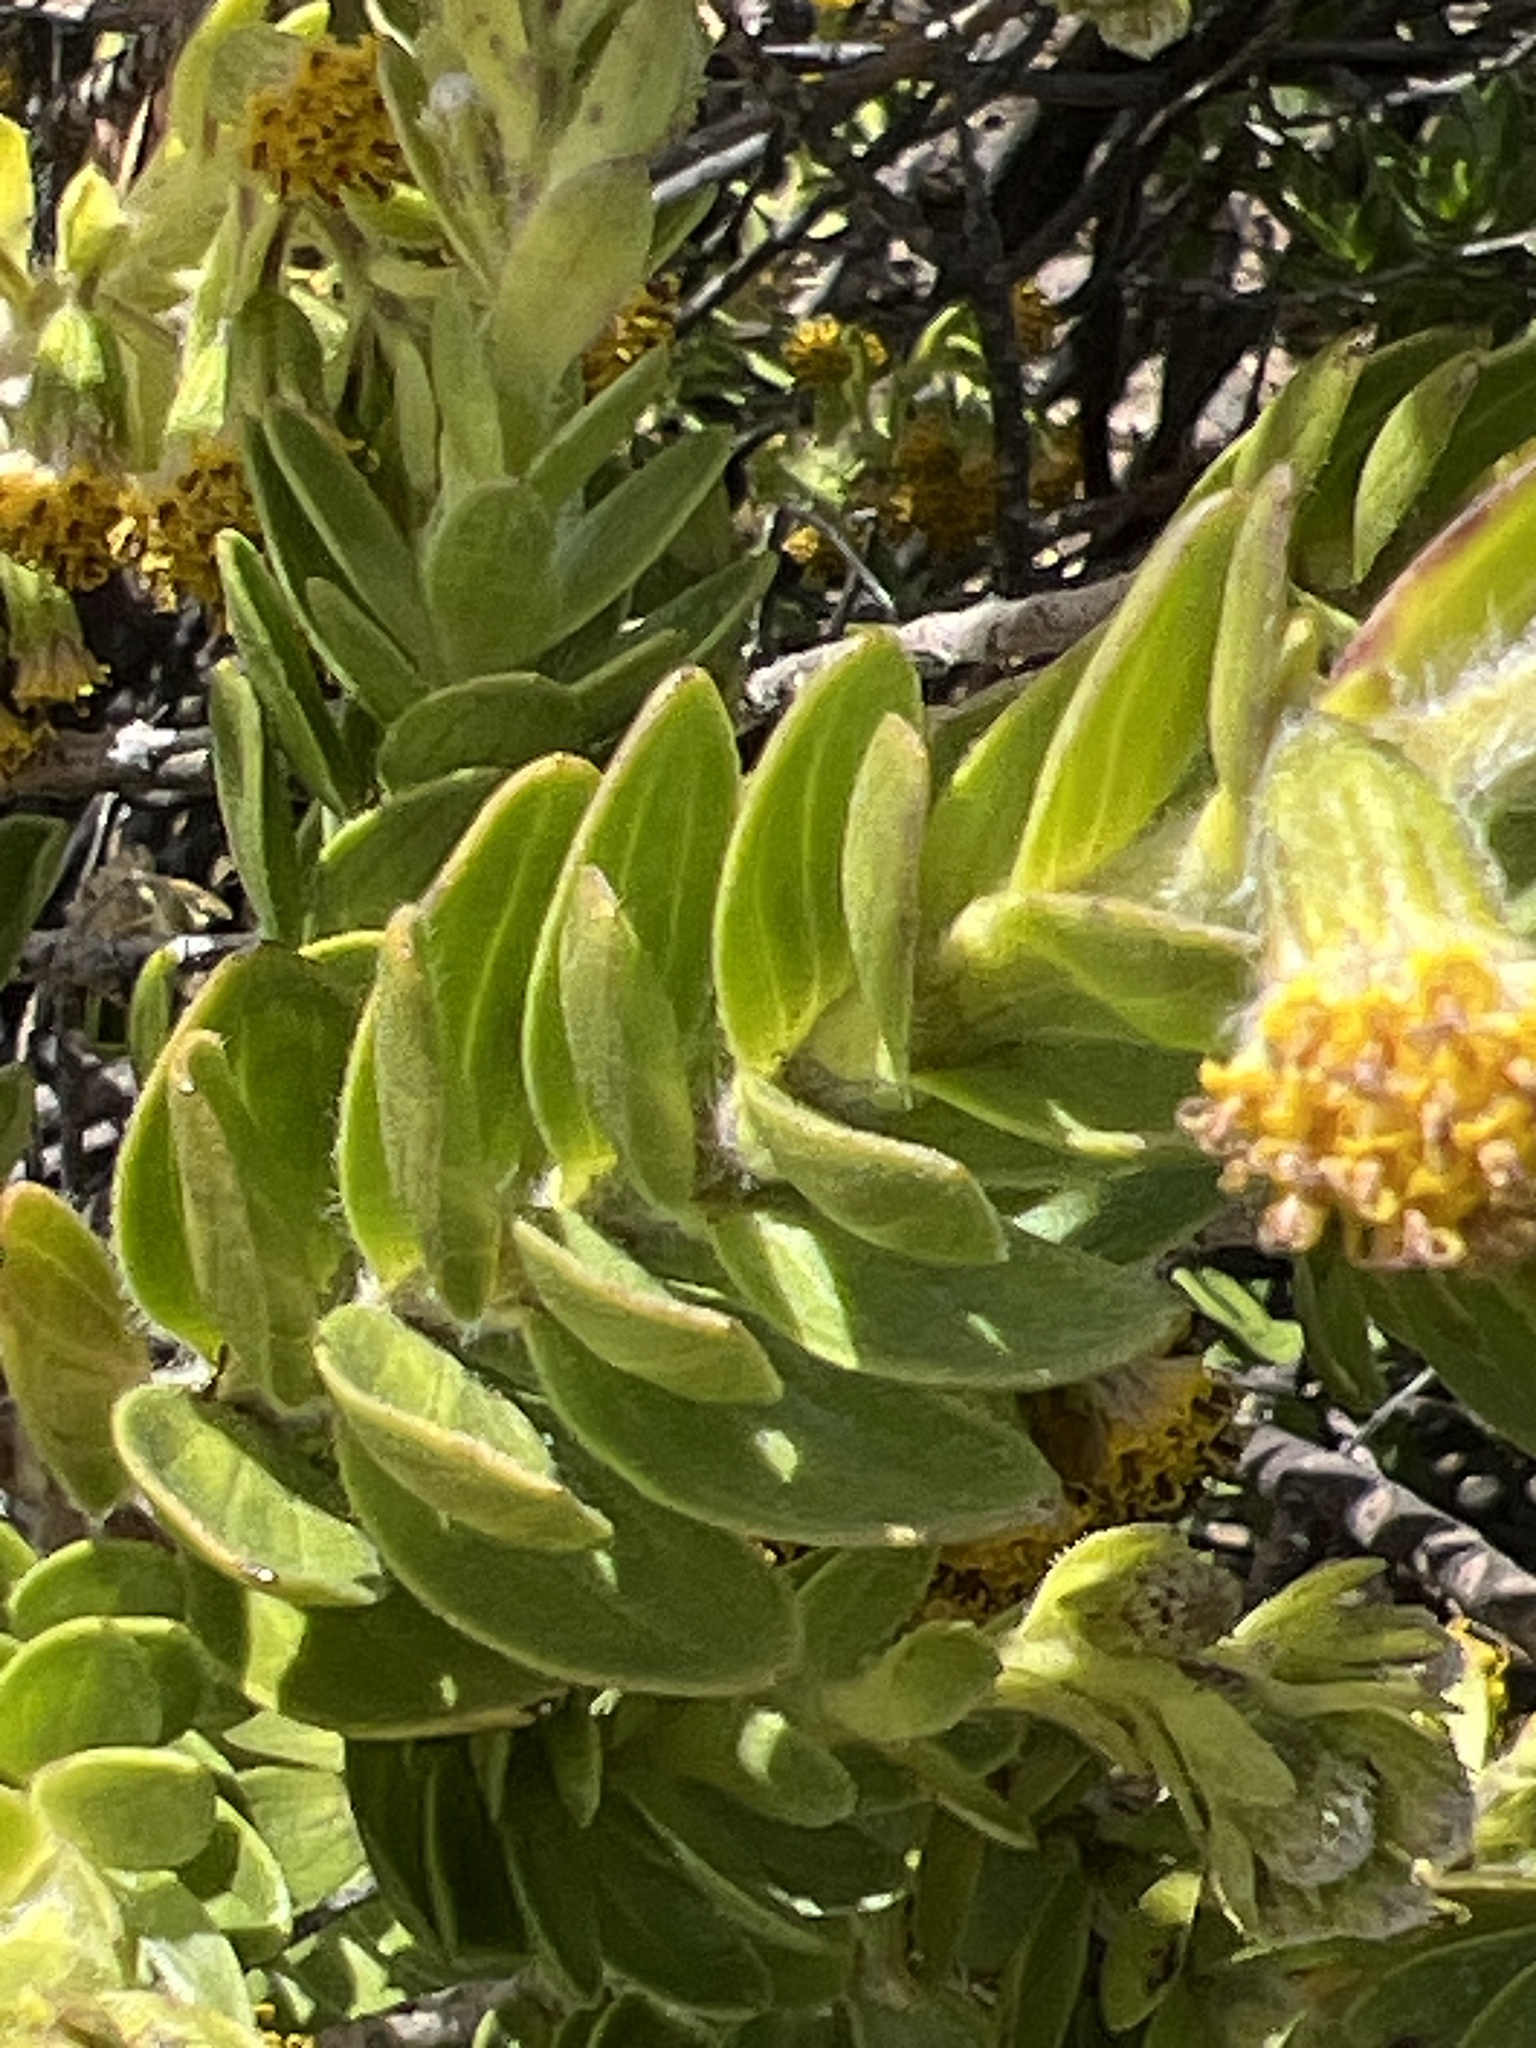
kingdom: Plantae
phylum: Tracheophyta
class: Magnoliopsida
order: Asterales
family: Asteraceae
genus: Dubautia
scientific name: Dubautia menziesii
